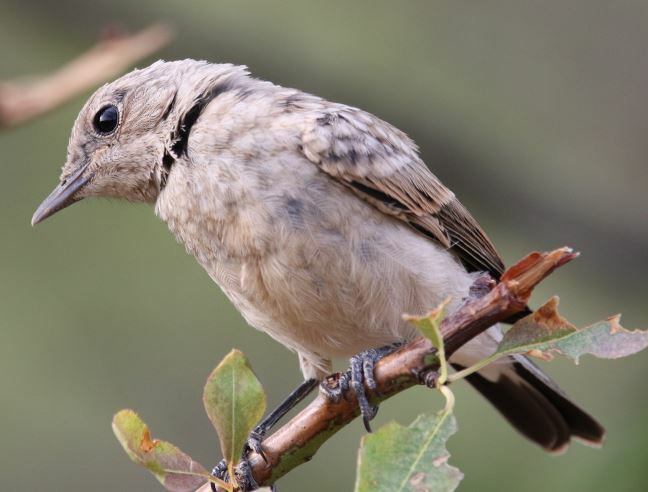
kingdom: Animalia
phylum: Chordata
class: Aves
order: Passeriformes
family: Muscicapidae
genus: Oenanthe
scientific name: Oenanthe hispanica
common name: Black-eared wheatear
